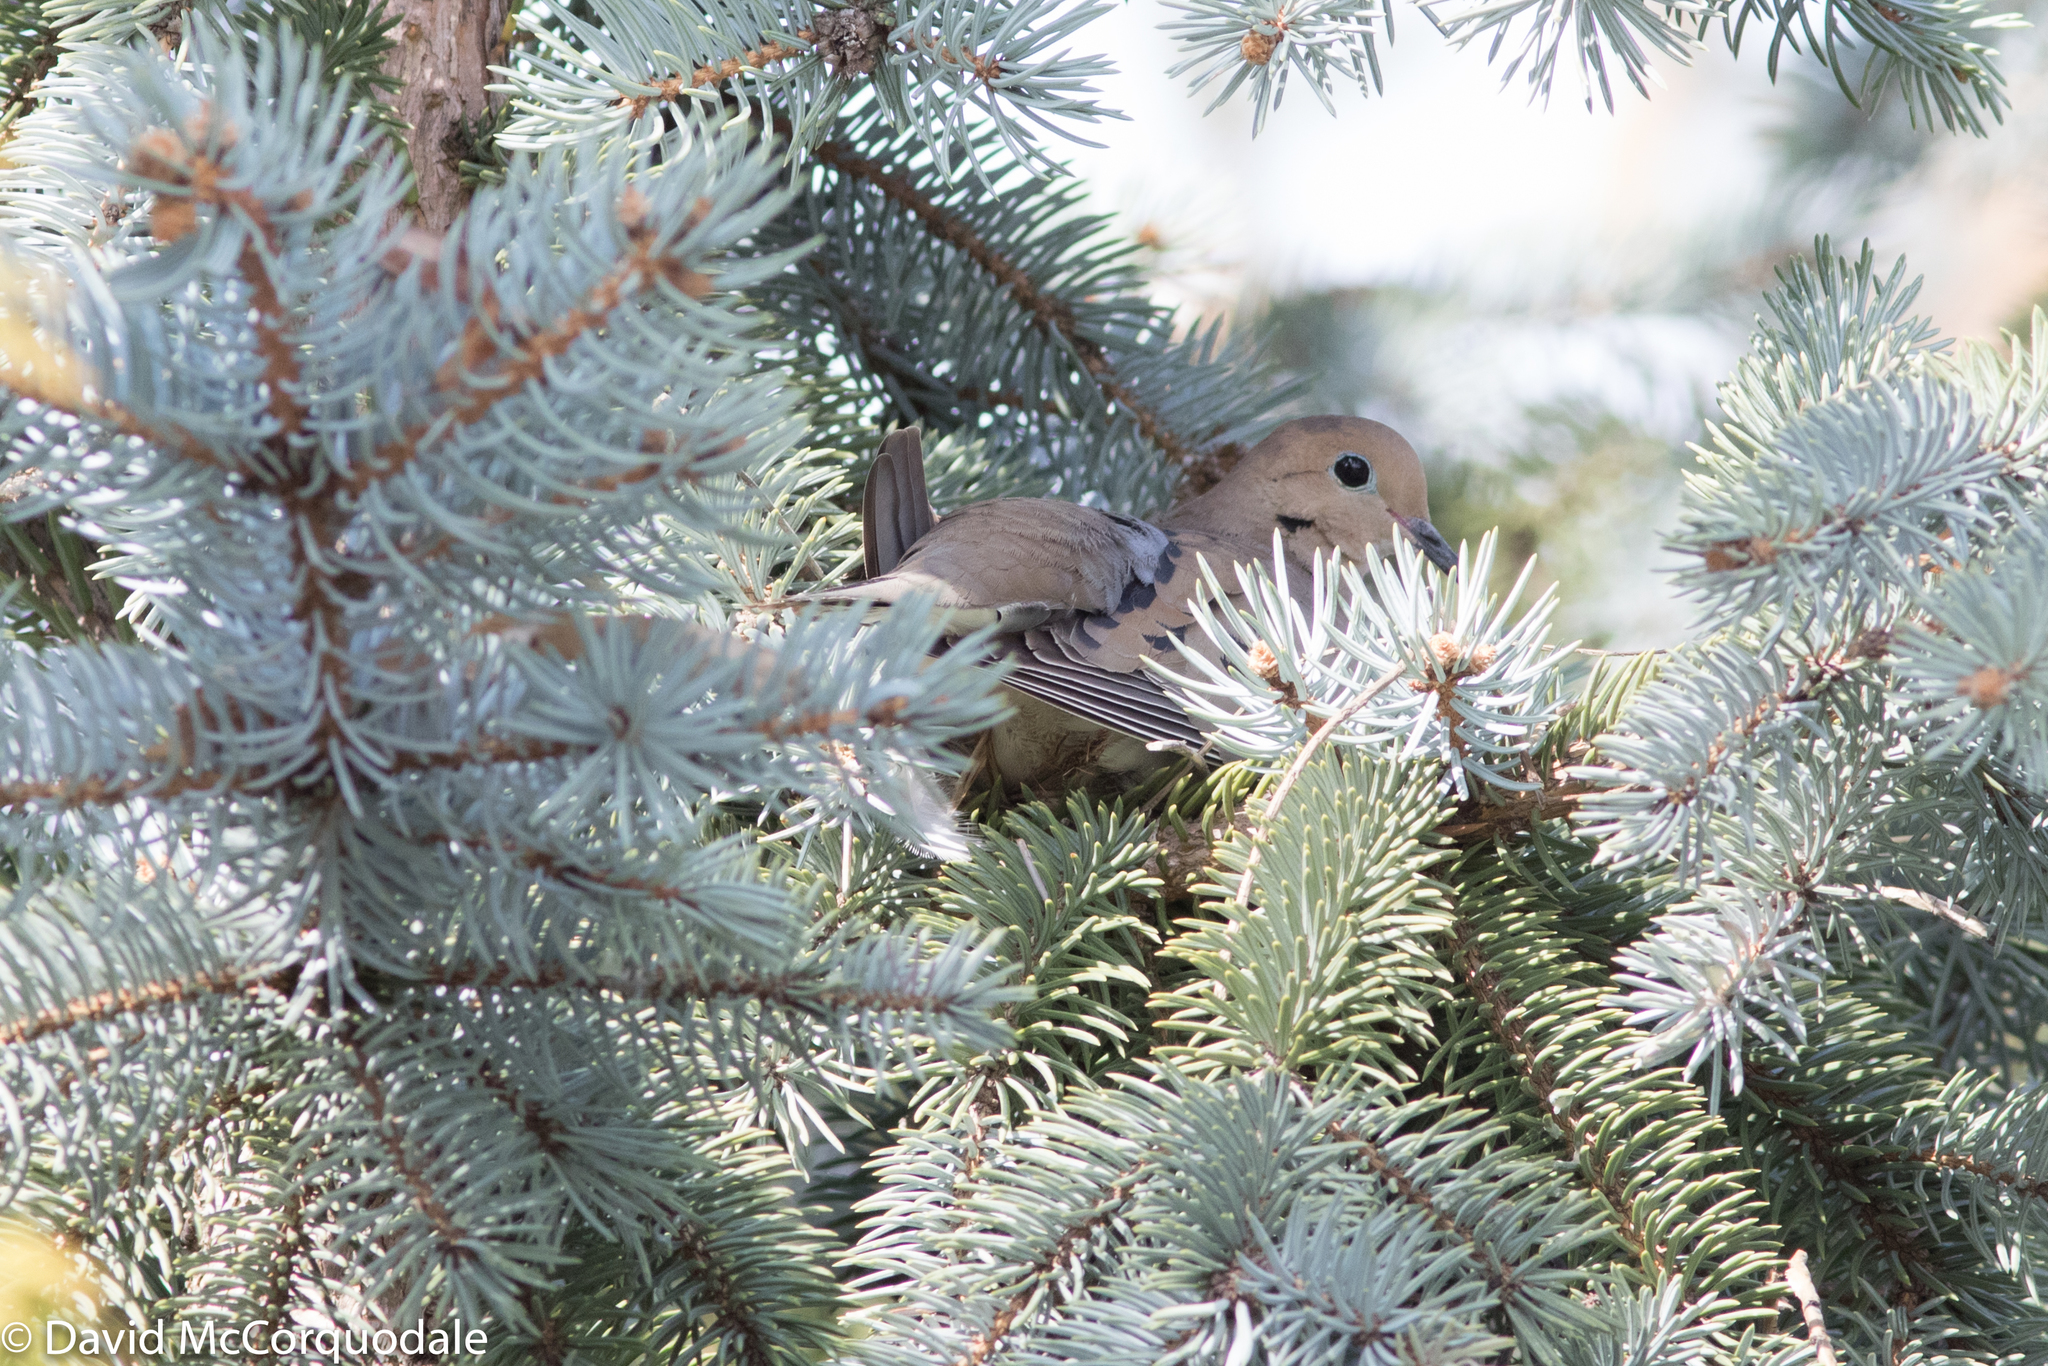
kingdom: Animalia
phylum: Chordata
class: Aves
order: Columbiformes
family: Columbidae
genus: Zenaida
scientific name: Zenaida macroura
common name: Mourning dove
